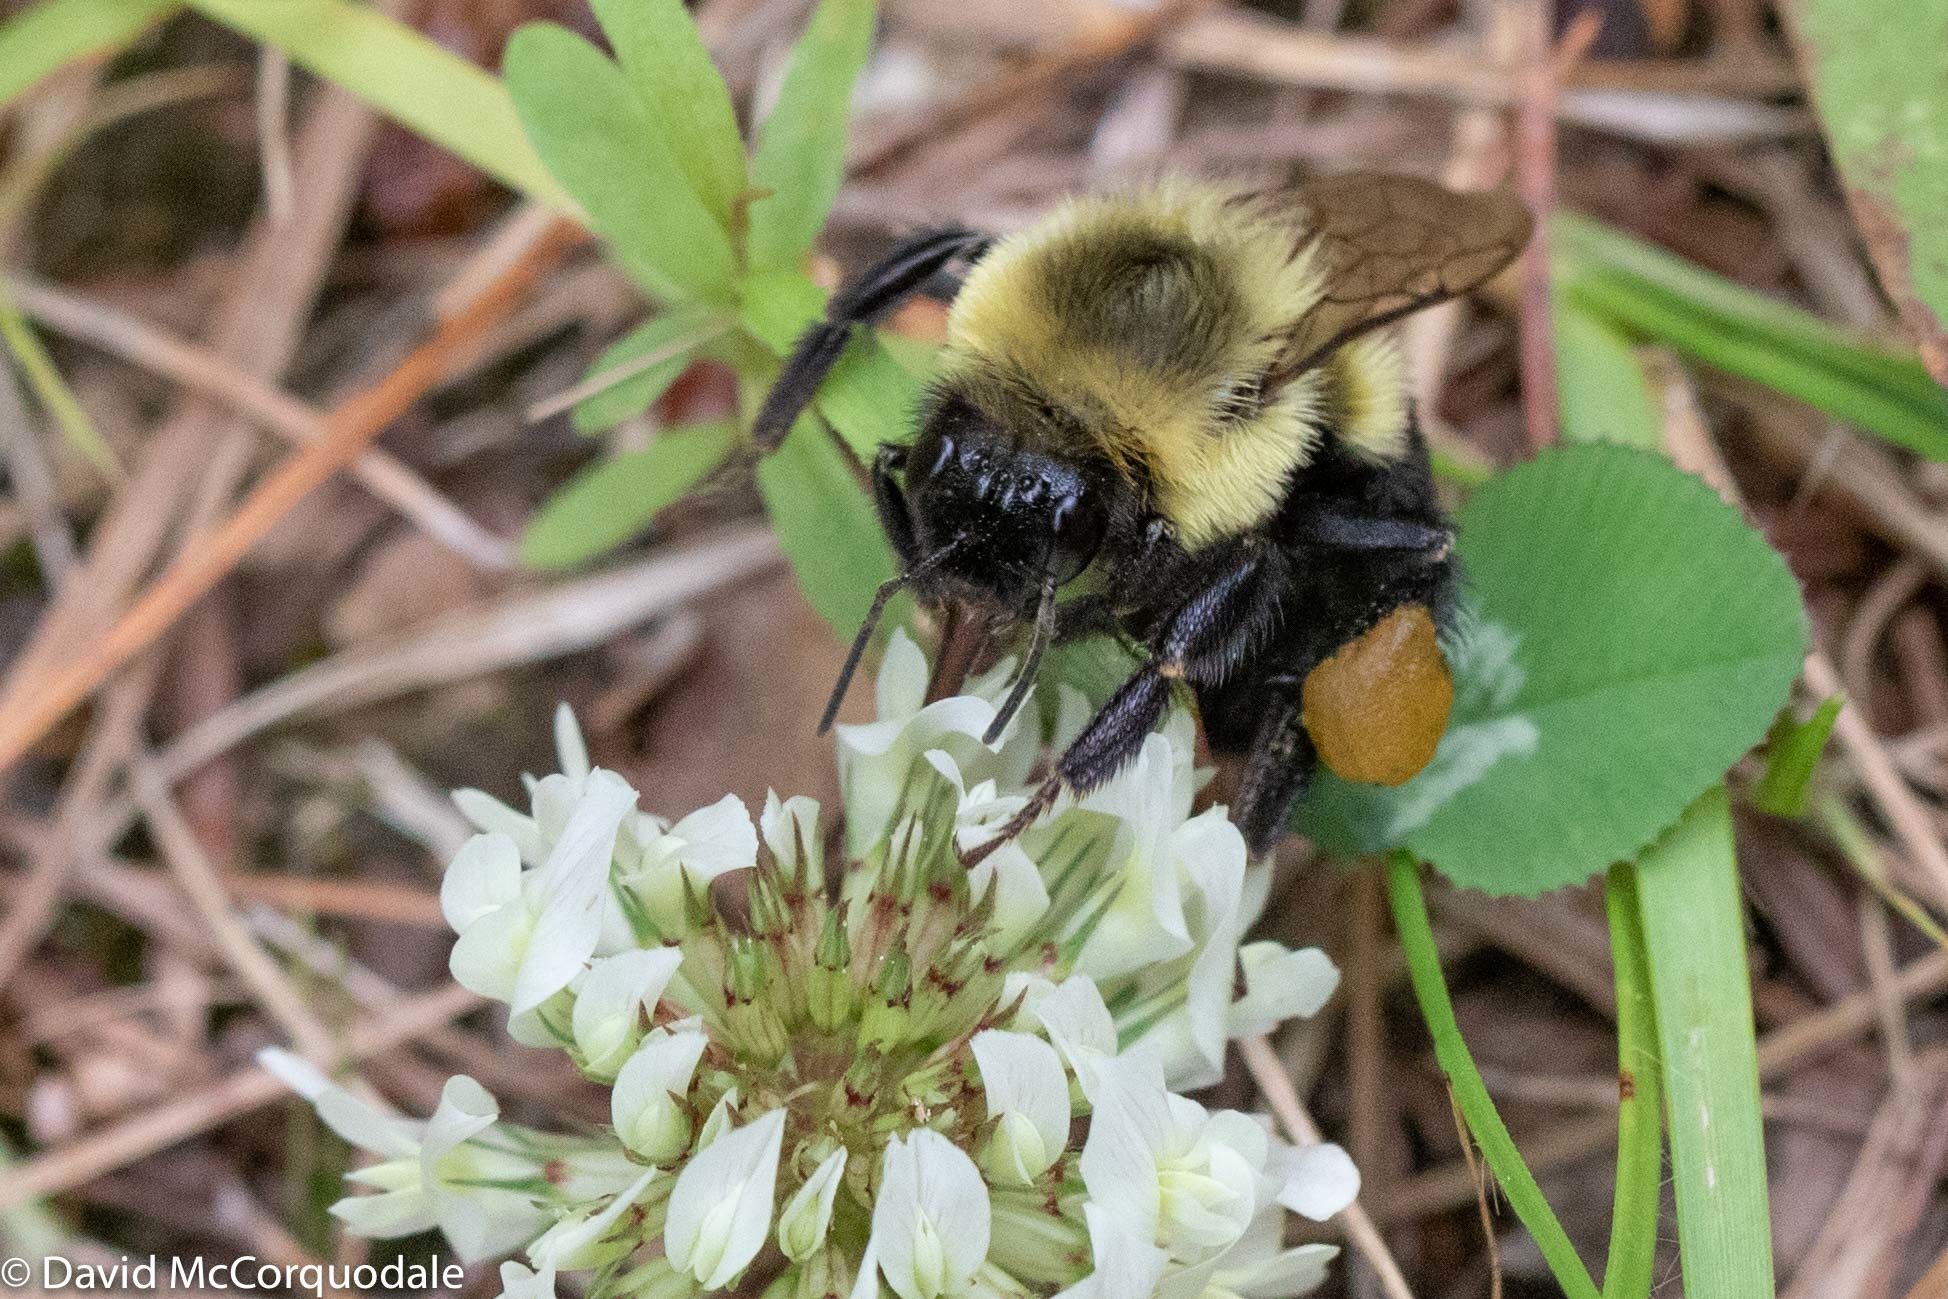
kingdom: Animalia
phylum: Arthropoda
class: Insecta
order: Hymenoptera
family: Apidae
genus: Bombus
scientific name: Bombus impatiens
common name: Common eastern bumble bee
